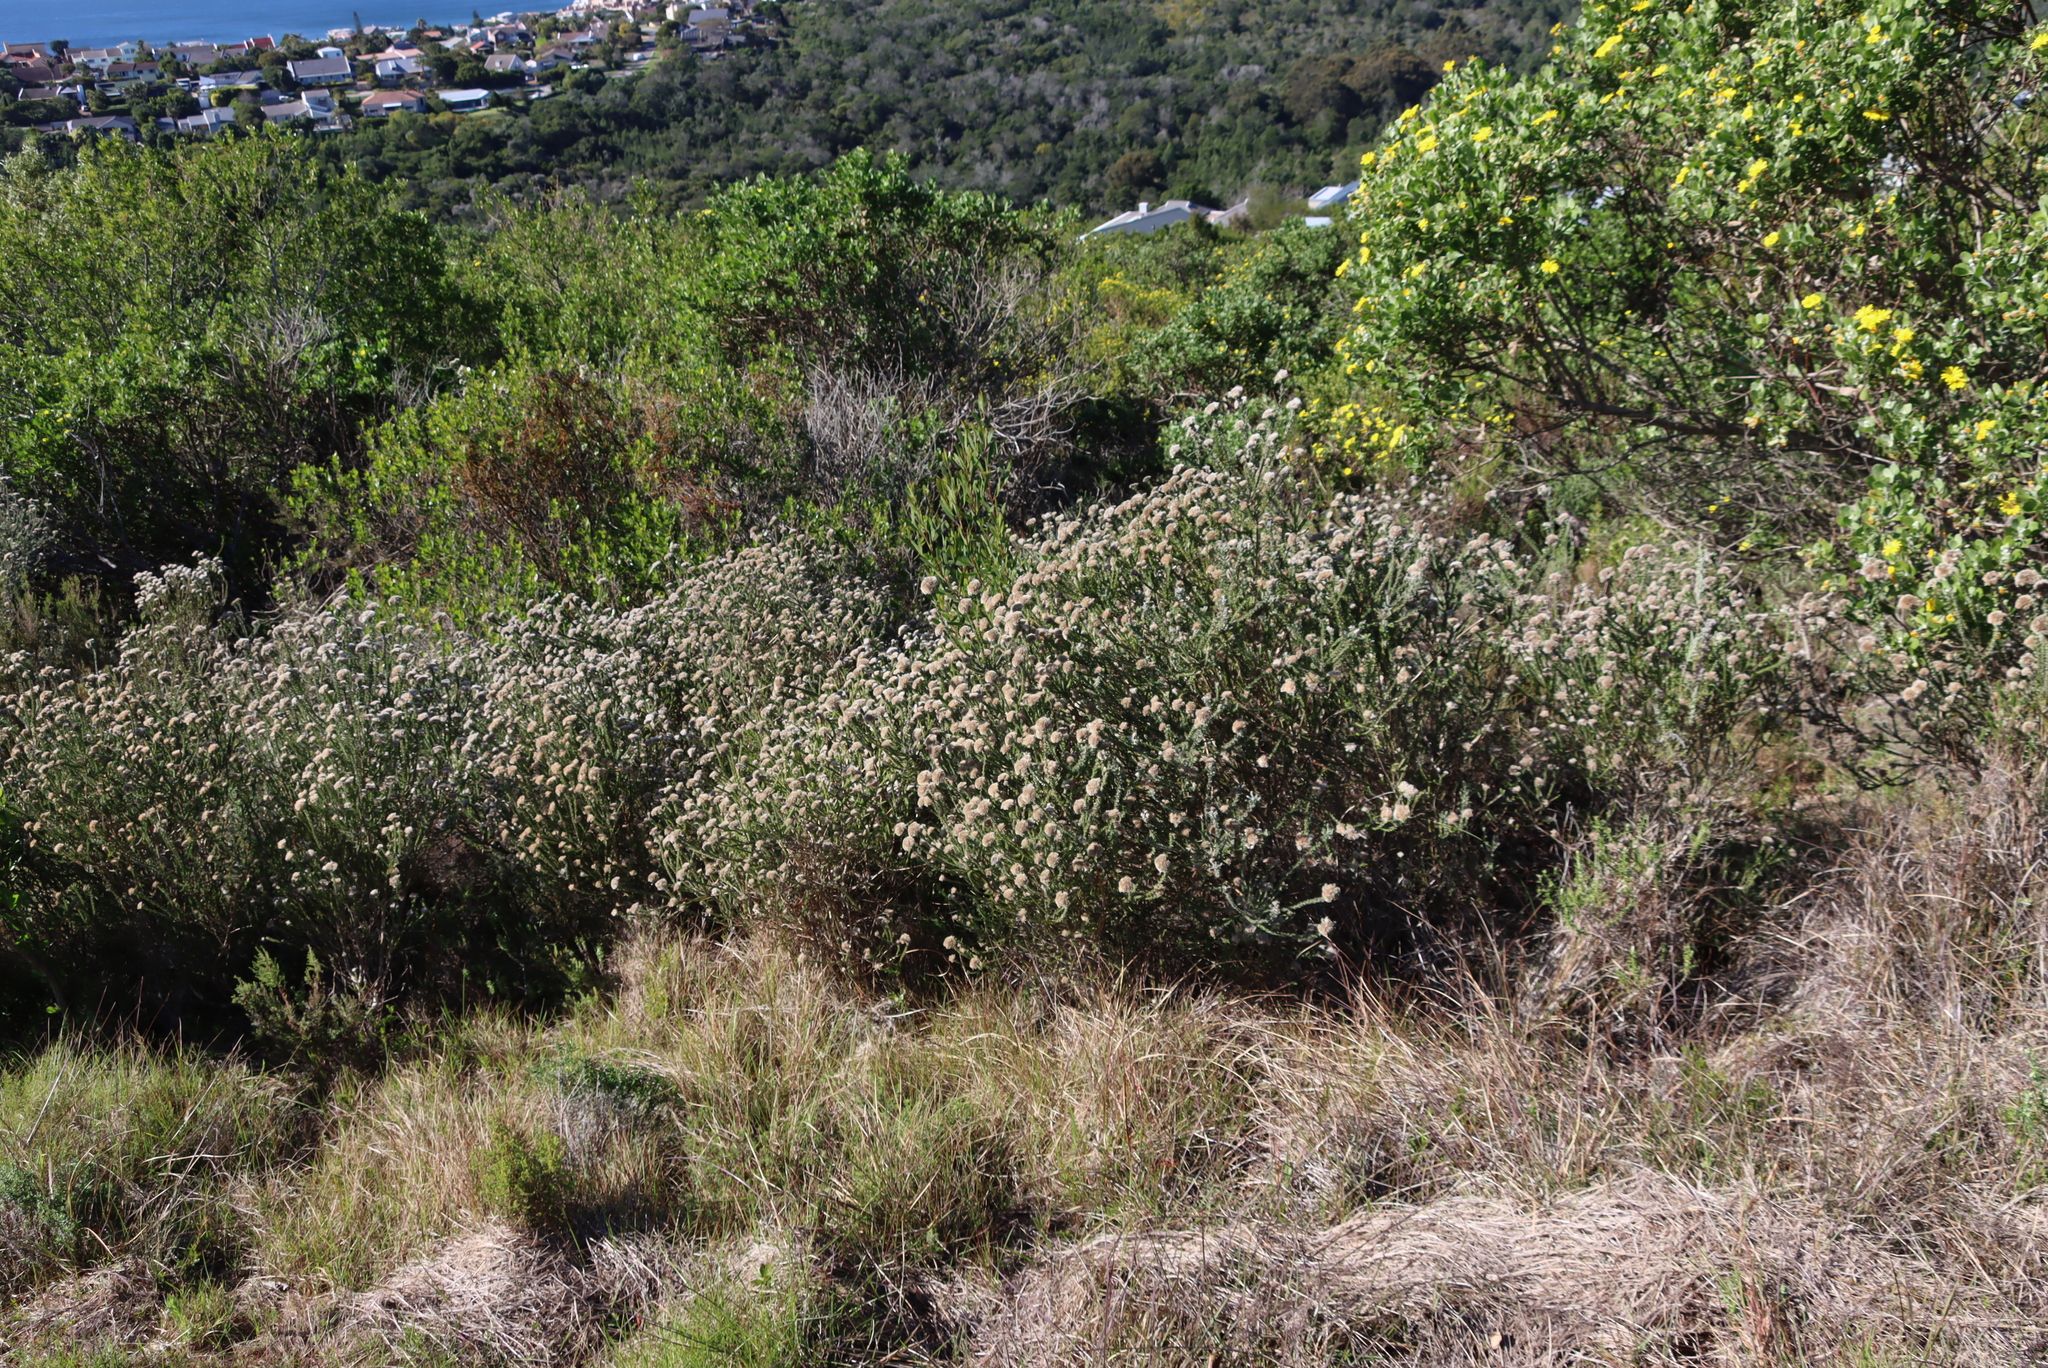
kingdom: Plantae
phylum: Tracheophyta
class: Magnoliopsida
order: Asterales
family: Asteraceae
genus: Metalasia
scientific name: Metalasia pungens
